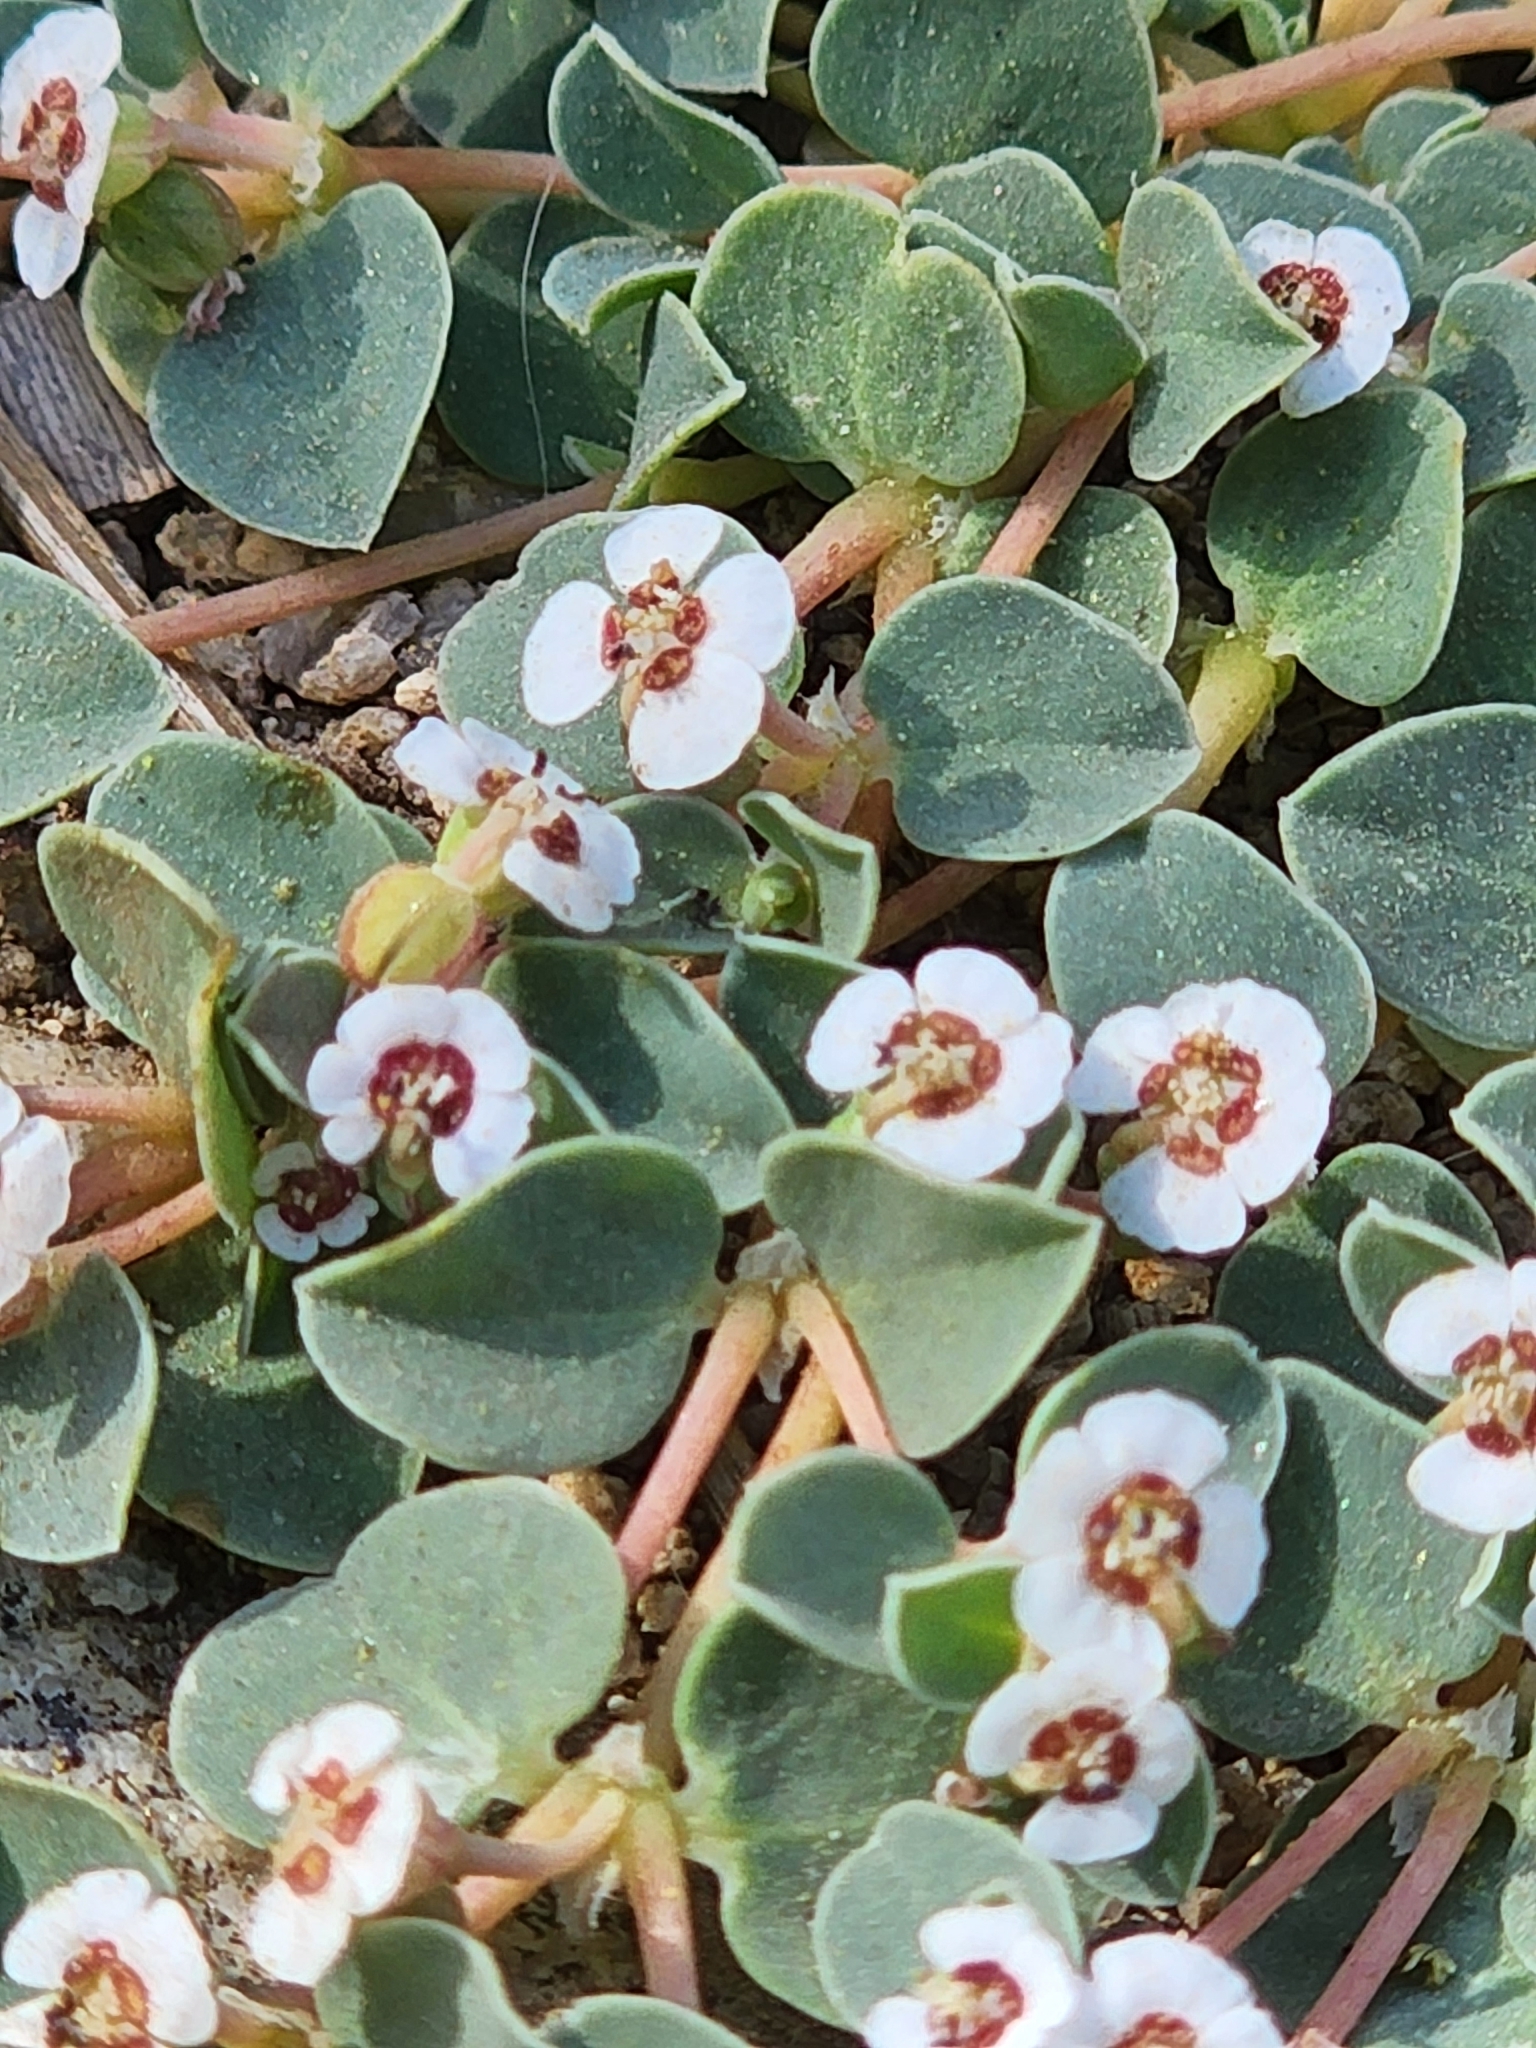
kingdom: Plantae
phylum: Tracheophyta
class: Magnoliopsida
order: Malpighiales
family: Euphorbiaceae
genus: Euphorbia
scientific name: Euphorbia albomarginata
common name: Whitemargin sandmat
